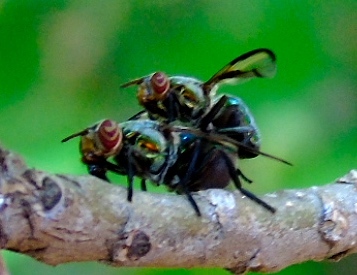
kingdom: Animalia
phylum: Arthropoda
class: Insecta
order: Diptera
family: Platystomatidae
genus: Senopterina
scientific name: Senopterina
